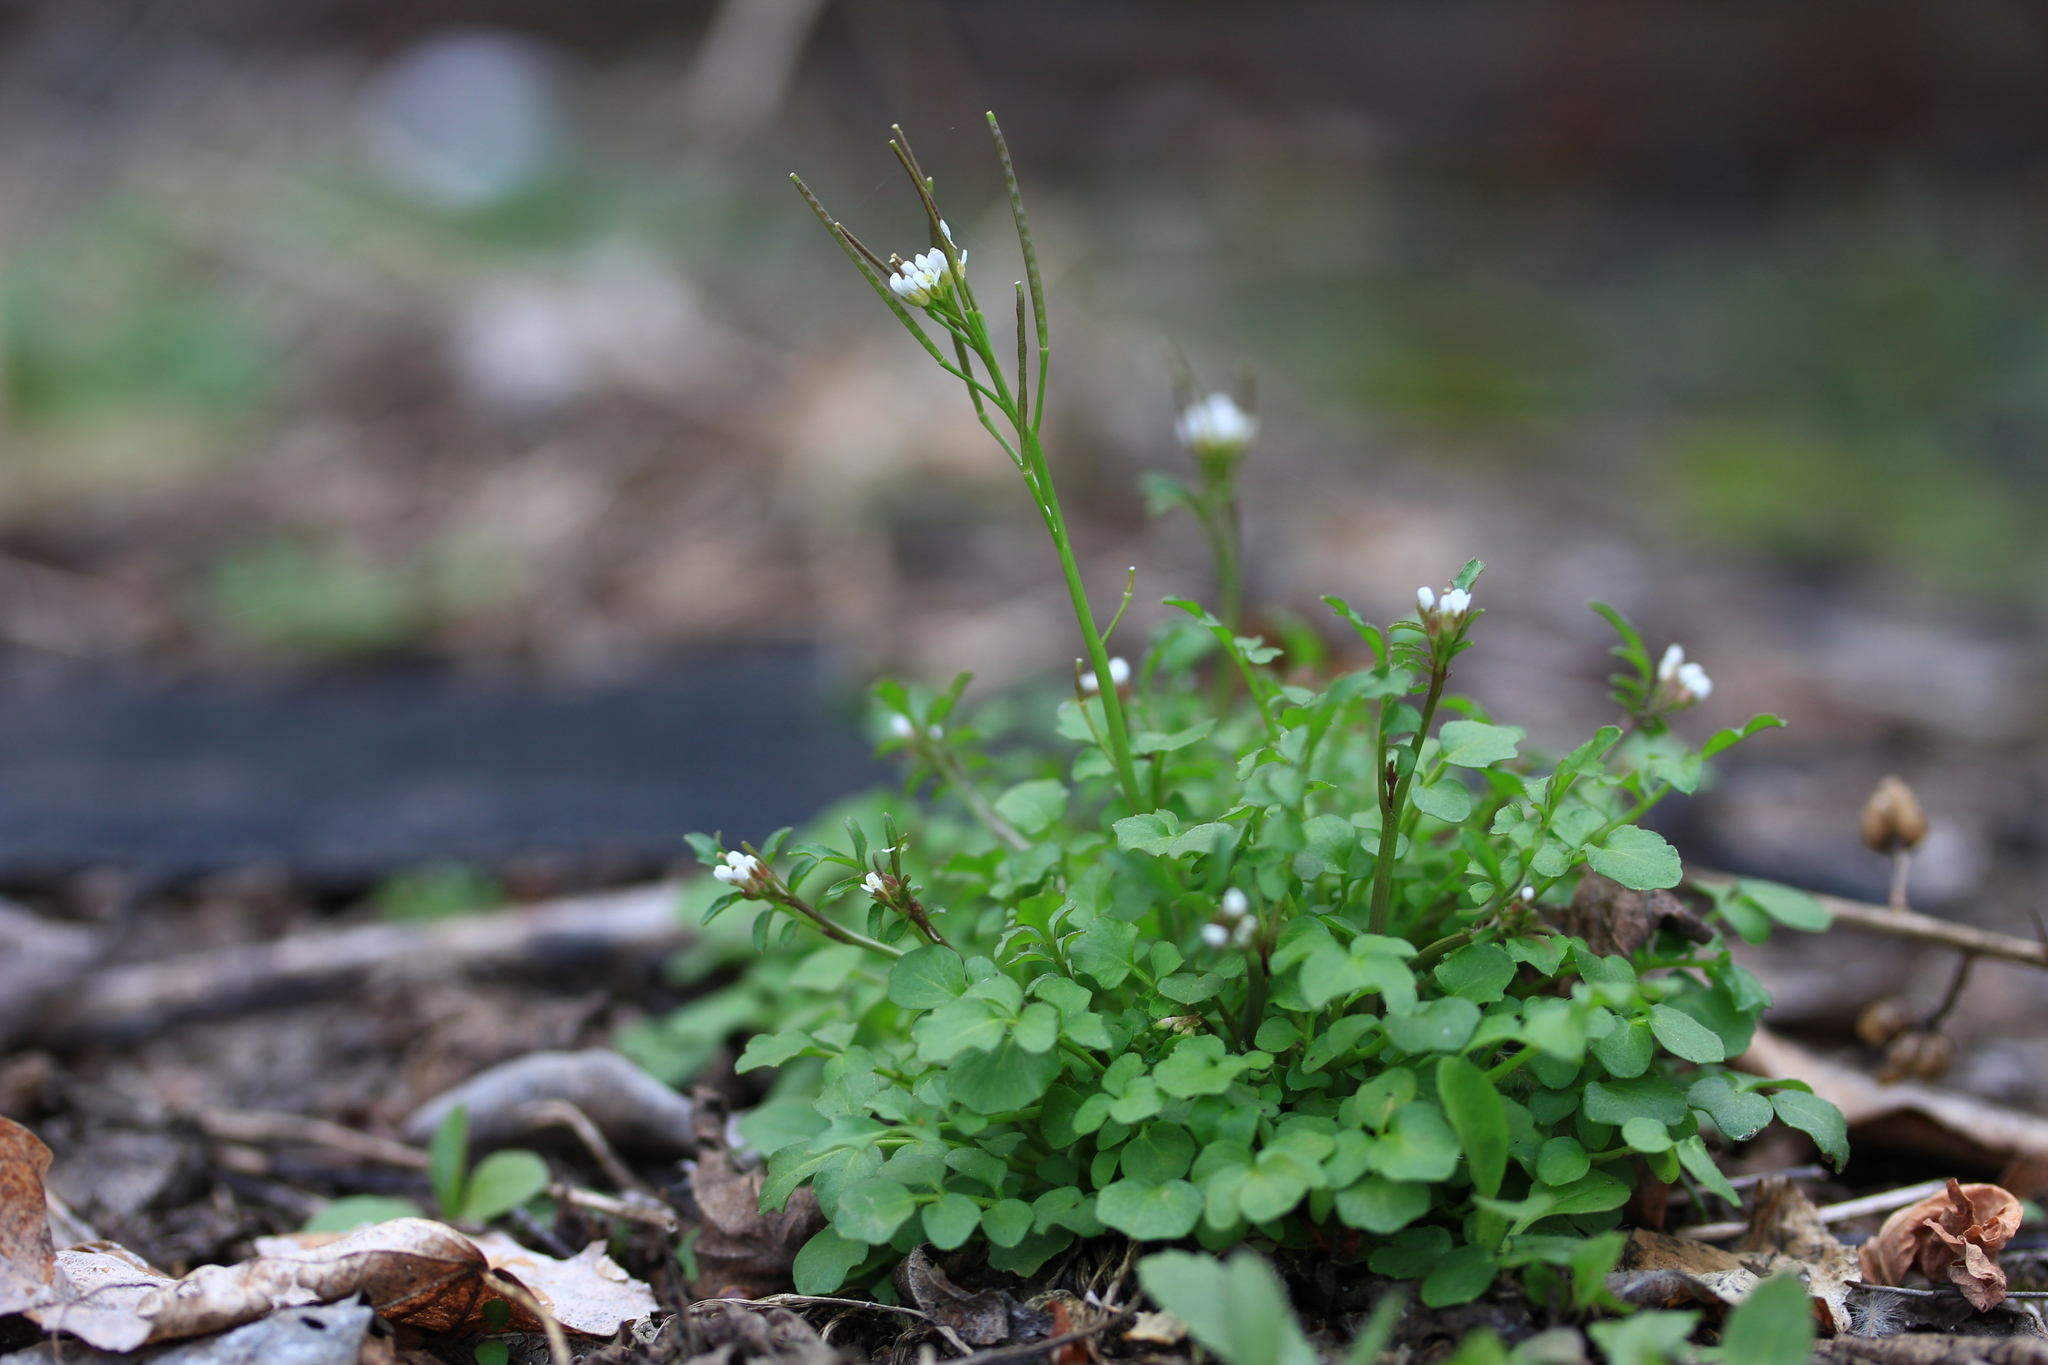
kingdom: Plantae
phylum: Tracheophyta
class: Magnoliopsida
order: Brassicales
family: Brassicaceae
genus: Cardamine
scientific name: Cardamine hirsuta
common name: Hairy bittercress
